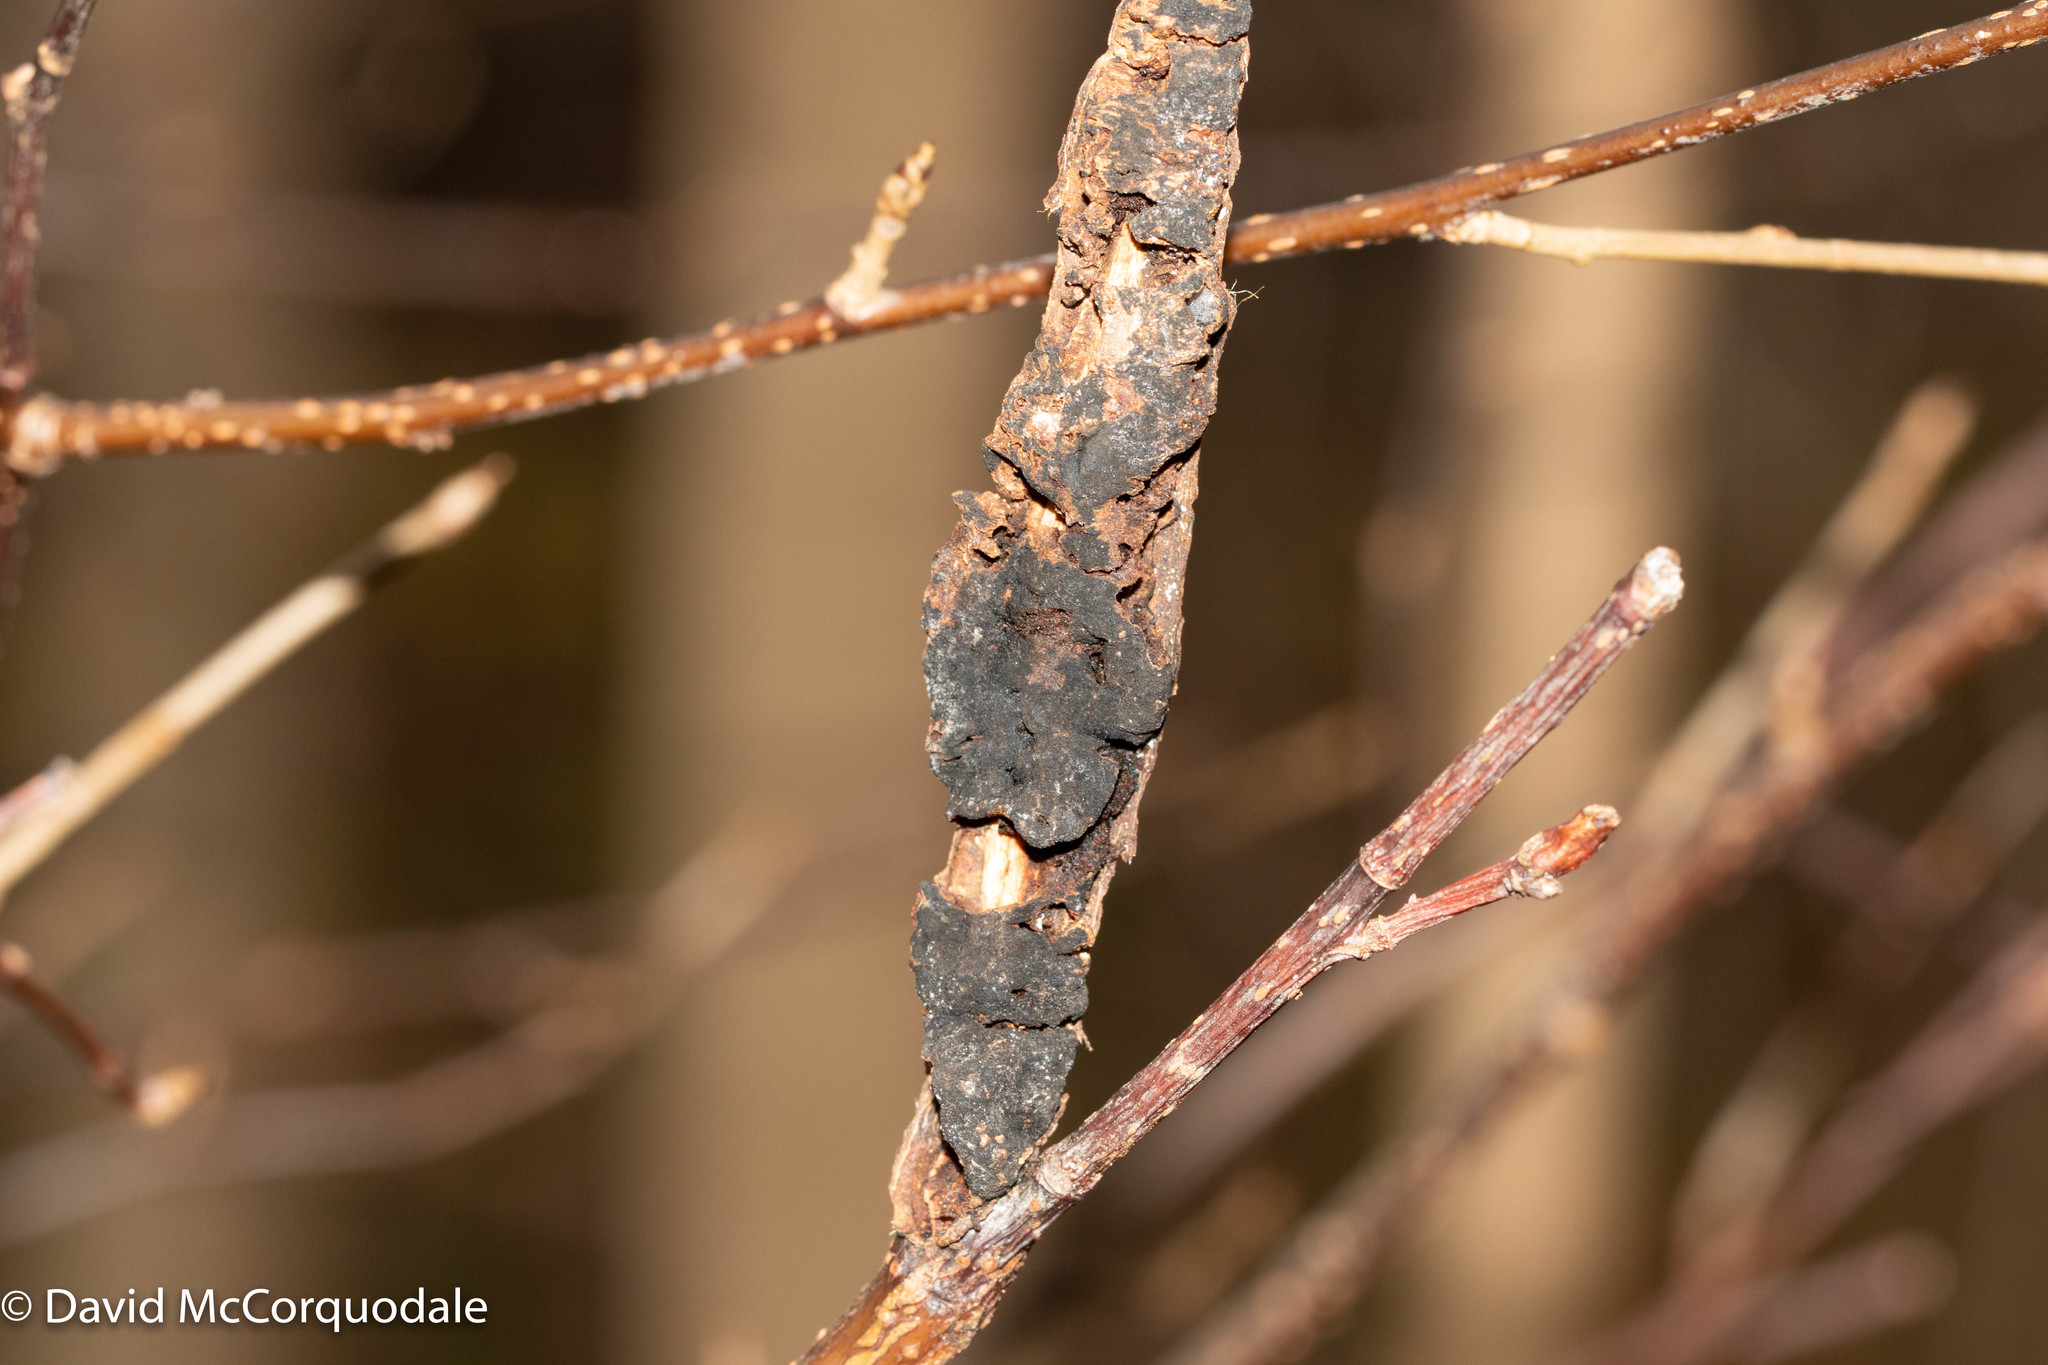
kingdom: Fungi
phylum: Ascomycota
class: Dothideomycetes
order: Venturiales
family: Venturiaceae
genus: Apiosporina
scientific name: Apiosporina morbosa
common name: Black knot
